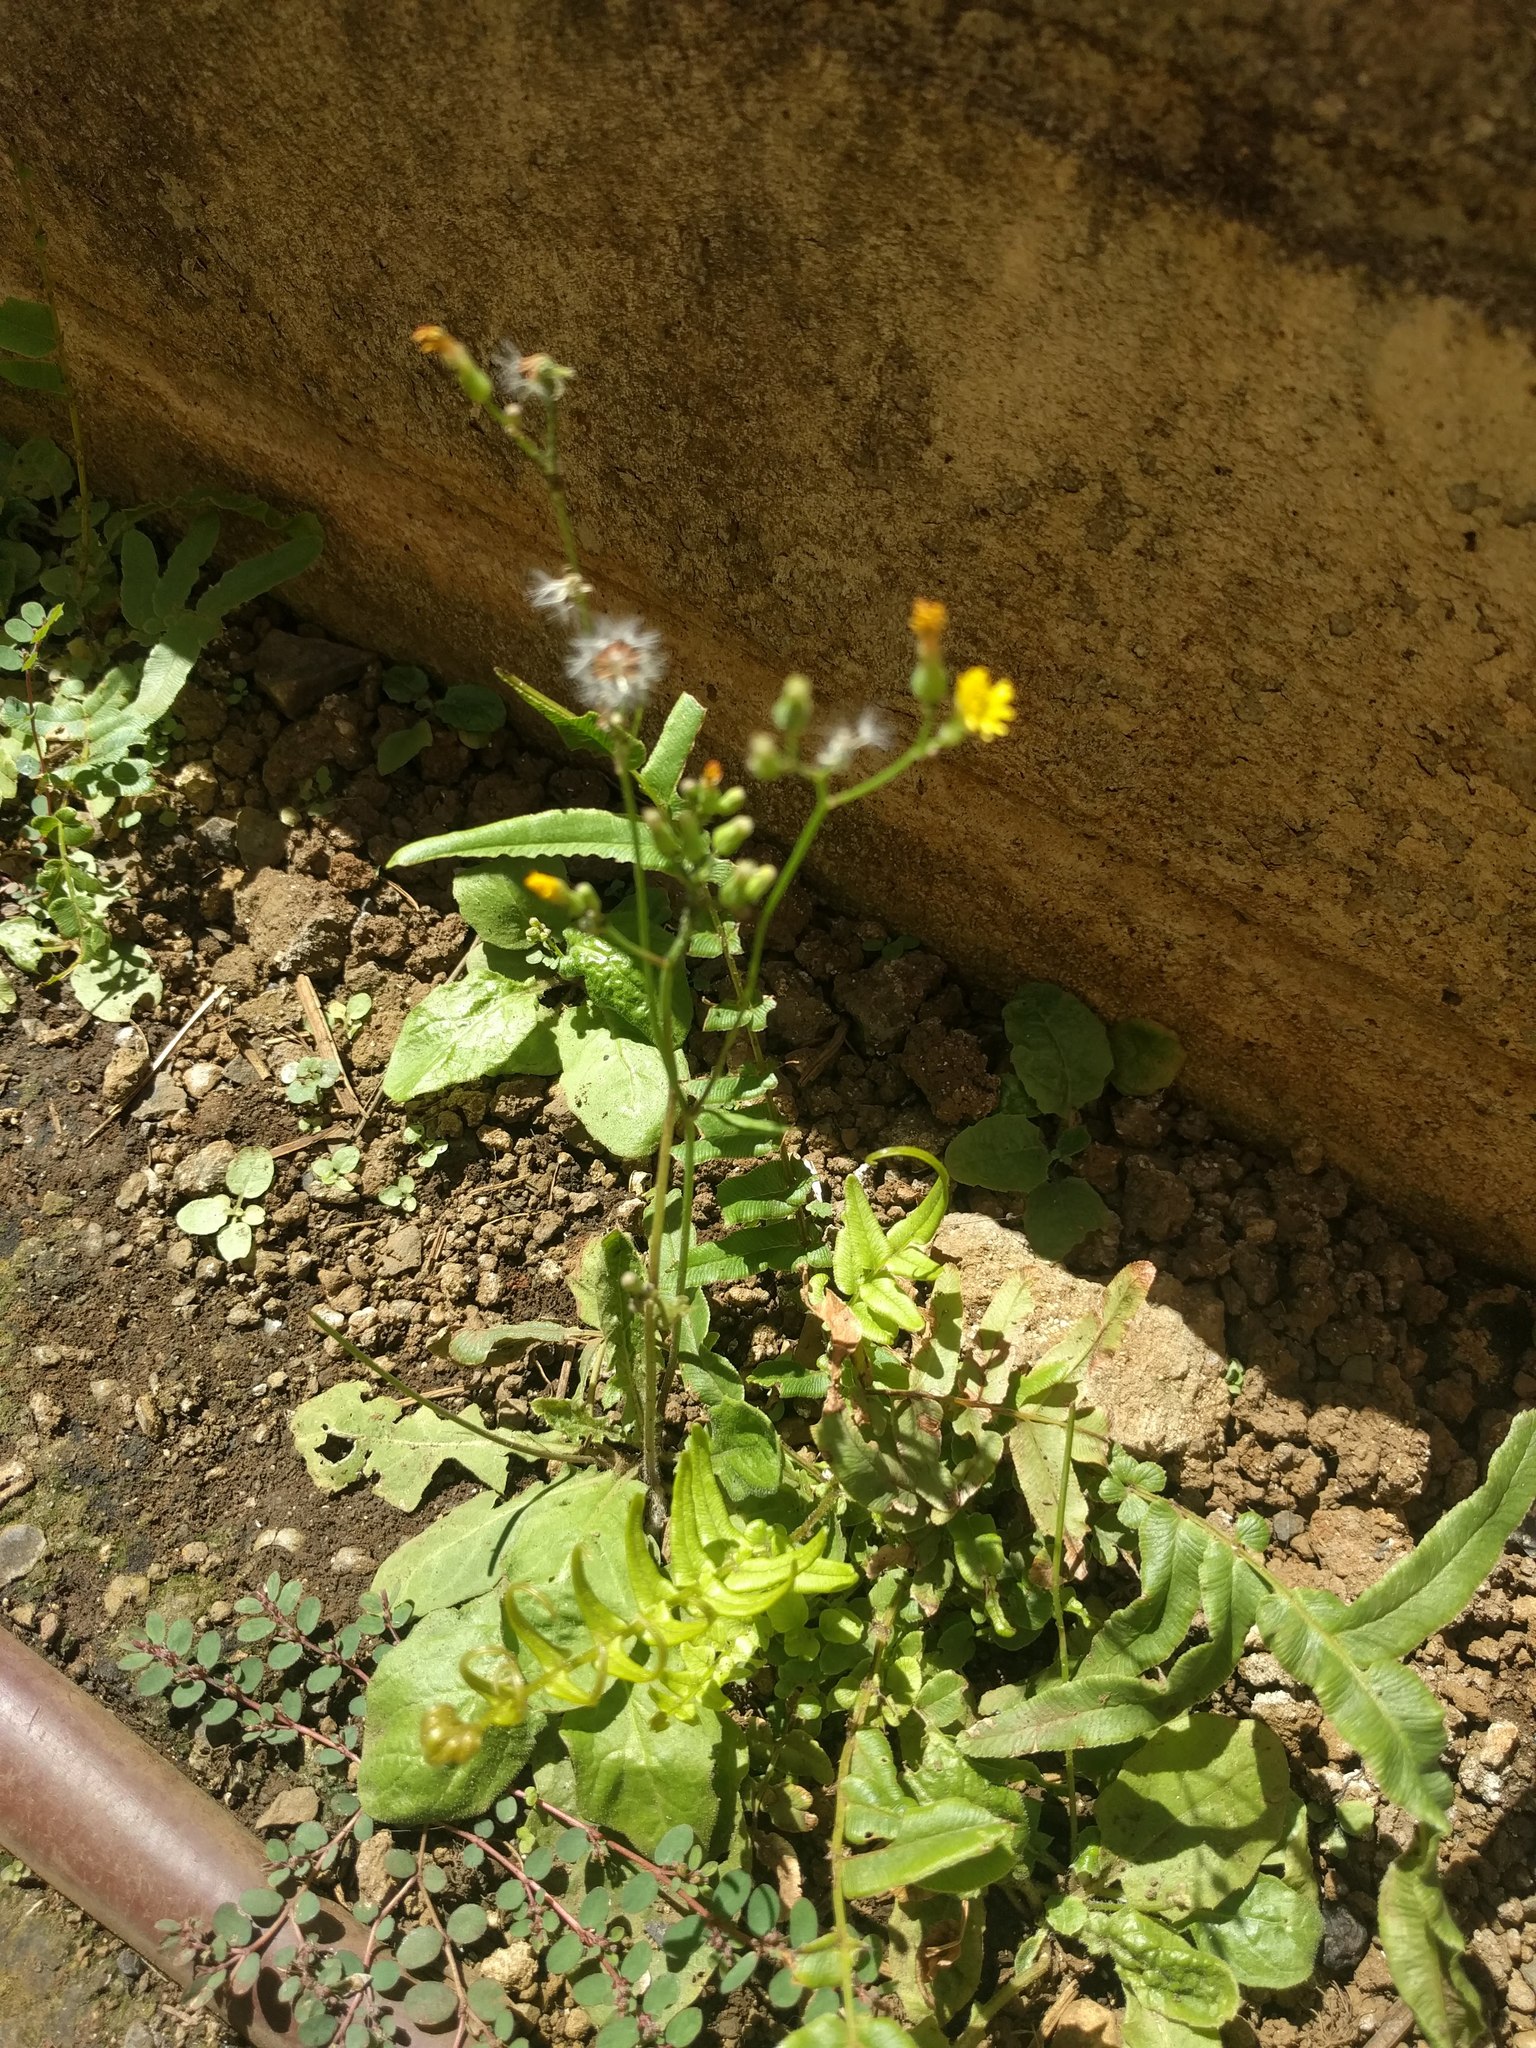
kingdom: Plantae
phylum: Tracheophyta
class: Magnoliopsida
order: Asterales
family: Asteraceae
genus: Youngia
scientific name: Youngia japonica
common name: Oriental false hawksbeard
